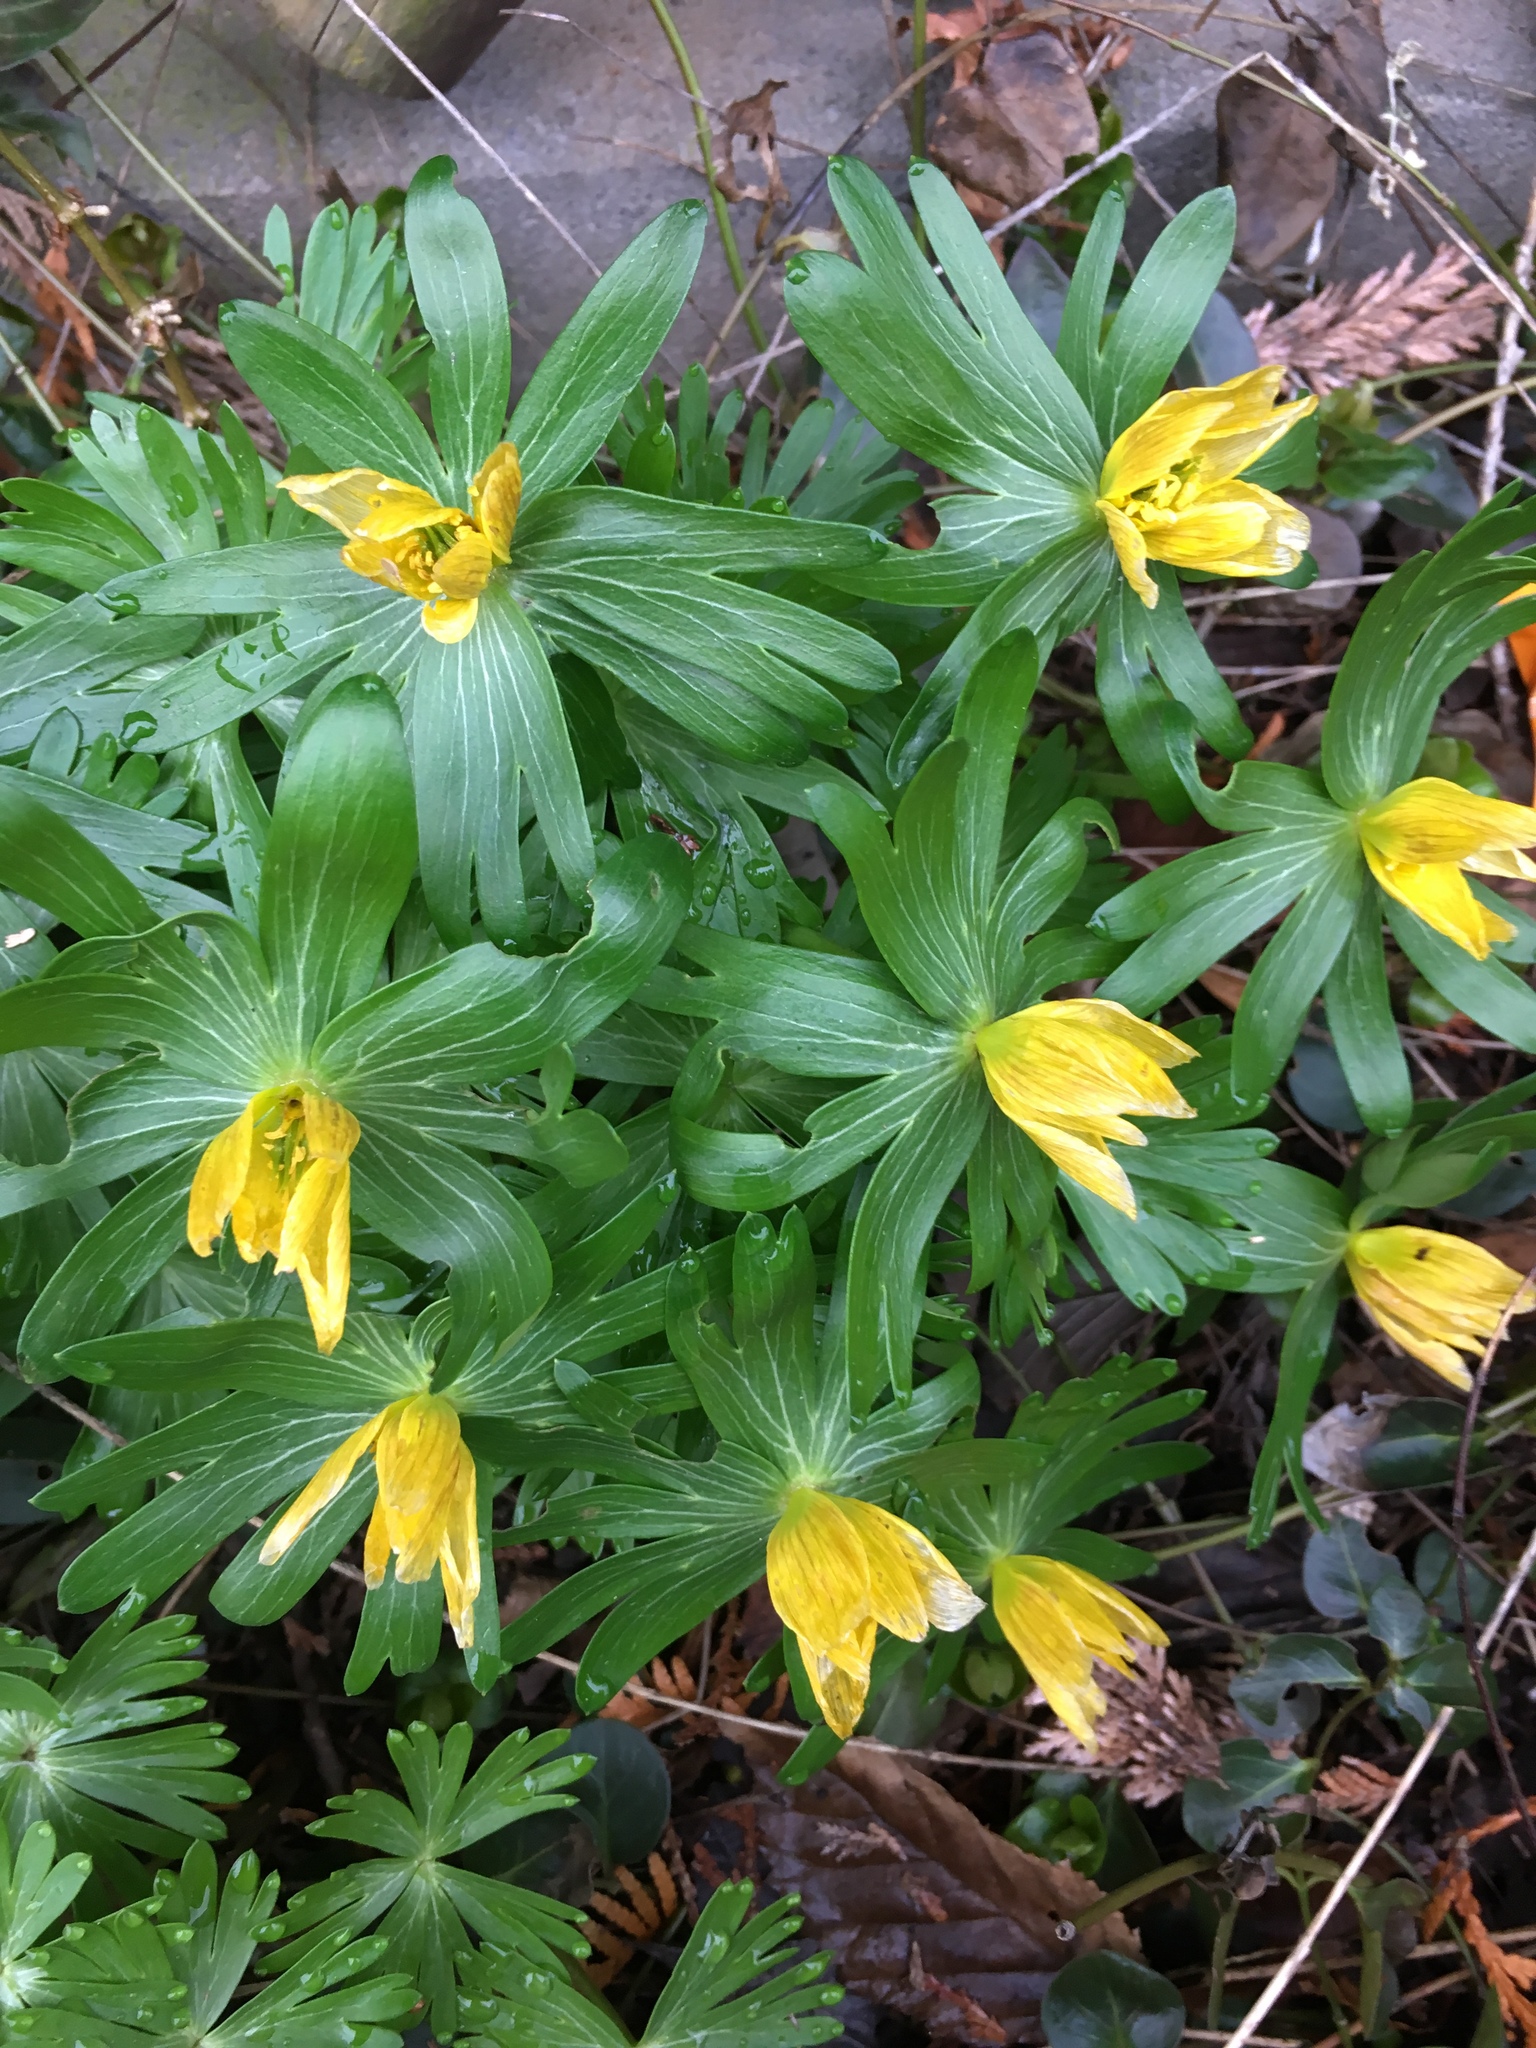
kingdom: Plantae
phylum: Tracheophyta
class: Magnoliopsida
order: Ranunculales
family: Ranunculaceae
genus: Eranthis
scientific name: Eranthis hyemalis
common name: Winter aconite
